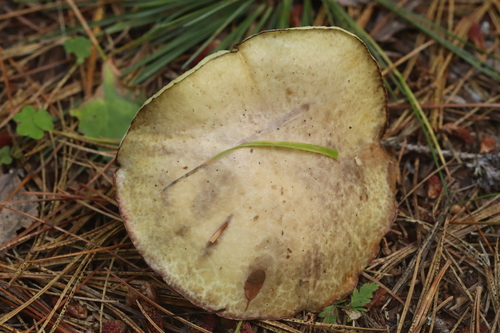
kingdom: Fungi
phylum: Basidiomycota
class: Agaricomycetes
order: Boletales
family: Suillaceae
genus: Suillus
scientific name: Suillus placidus
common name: Slippery white bolete
